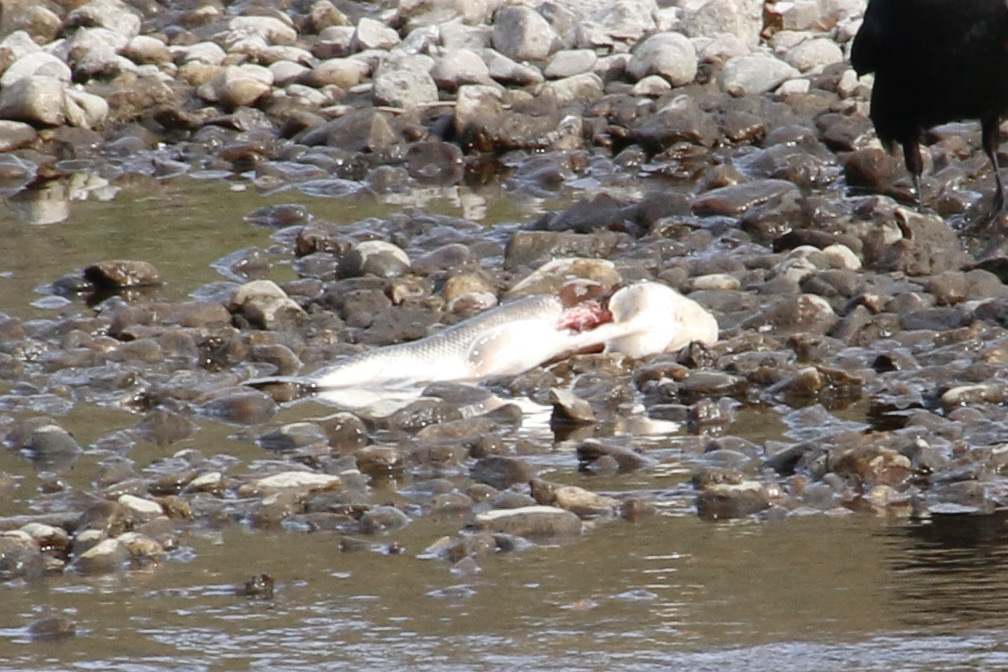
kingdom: Animalia
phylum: Chordata
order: Cypriniformes
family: Catostomidae
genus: Catostomus
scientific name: Catostomus commersonii
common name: White sucker
